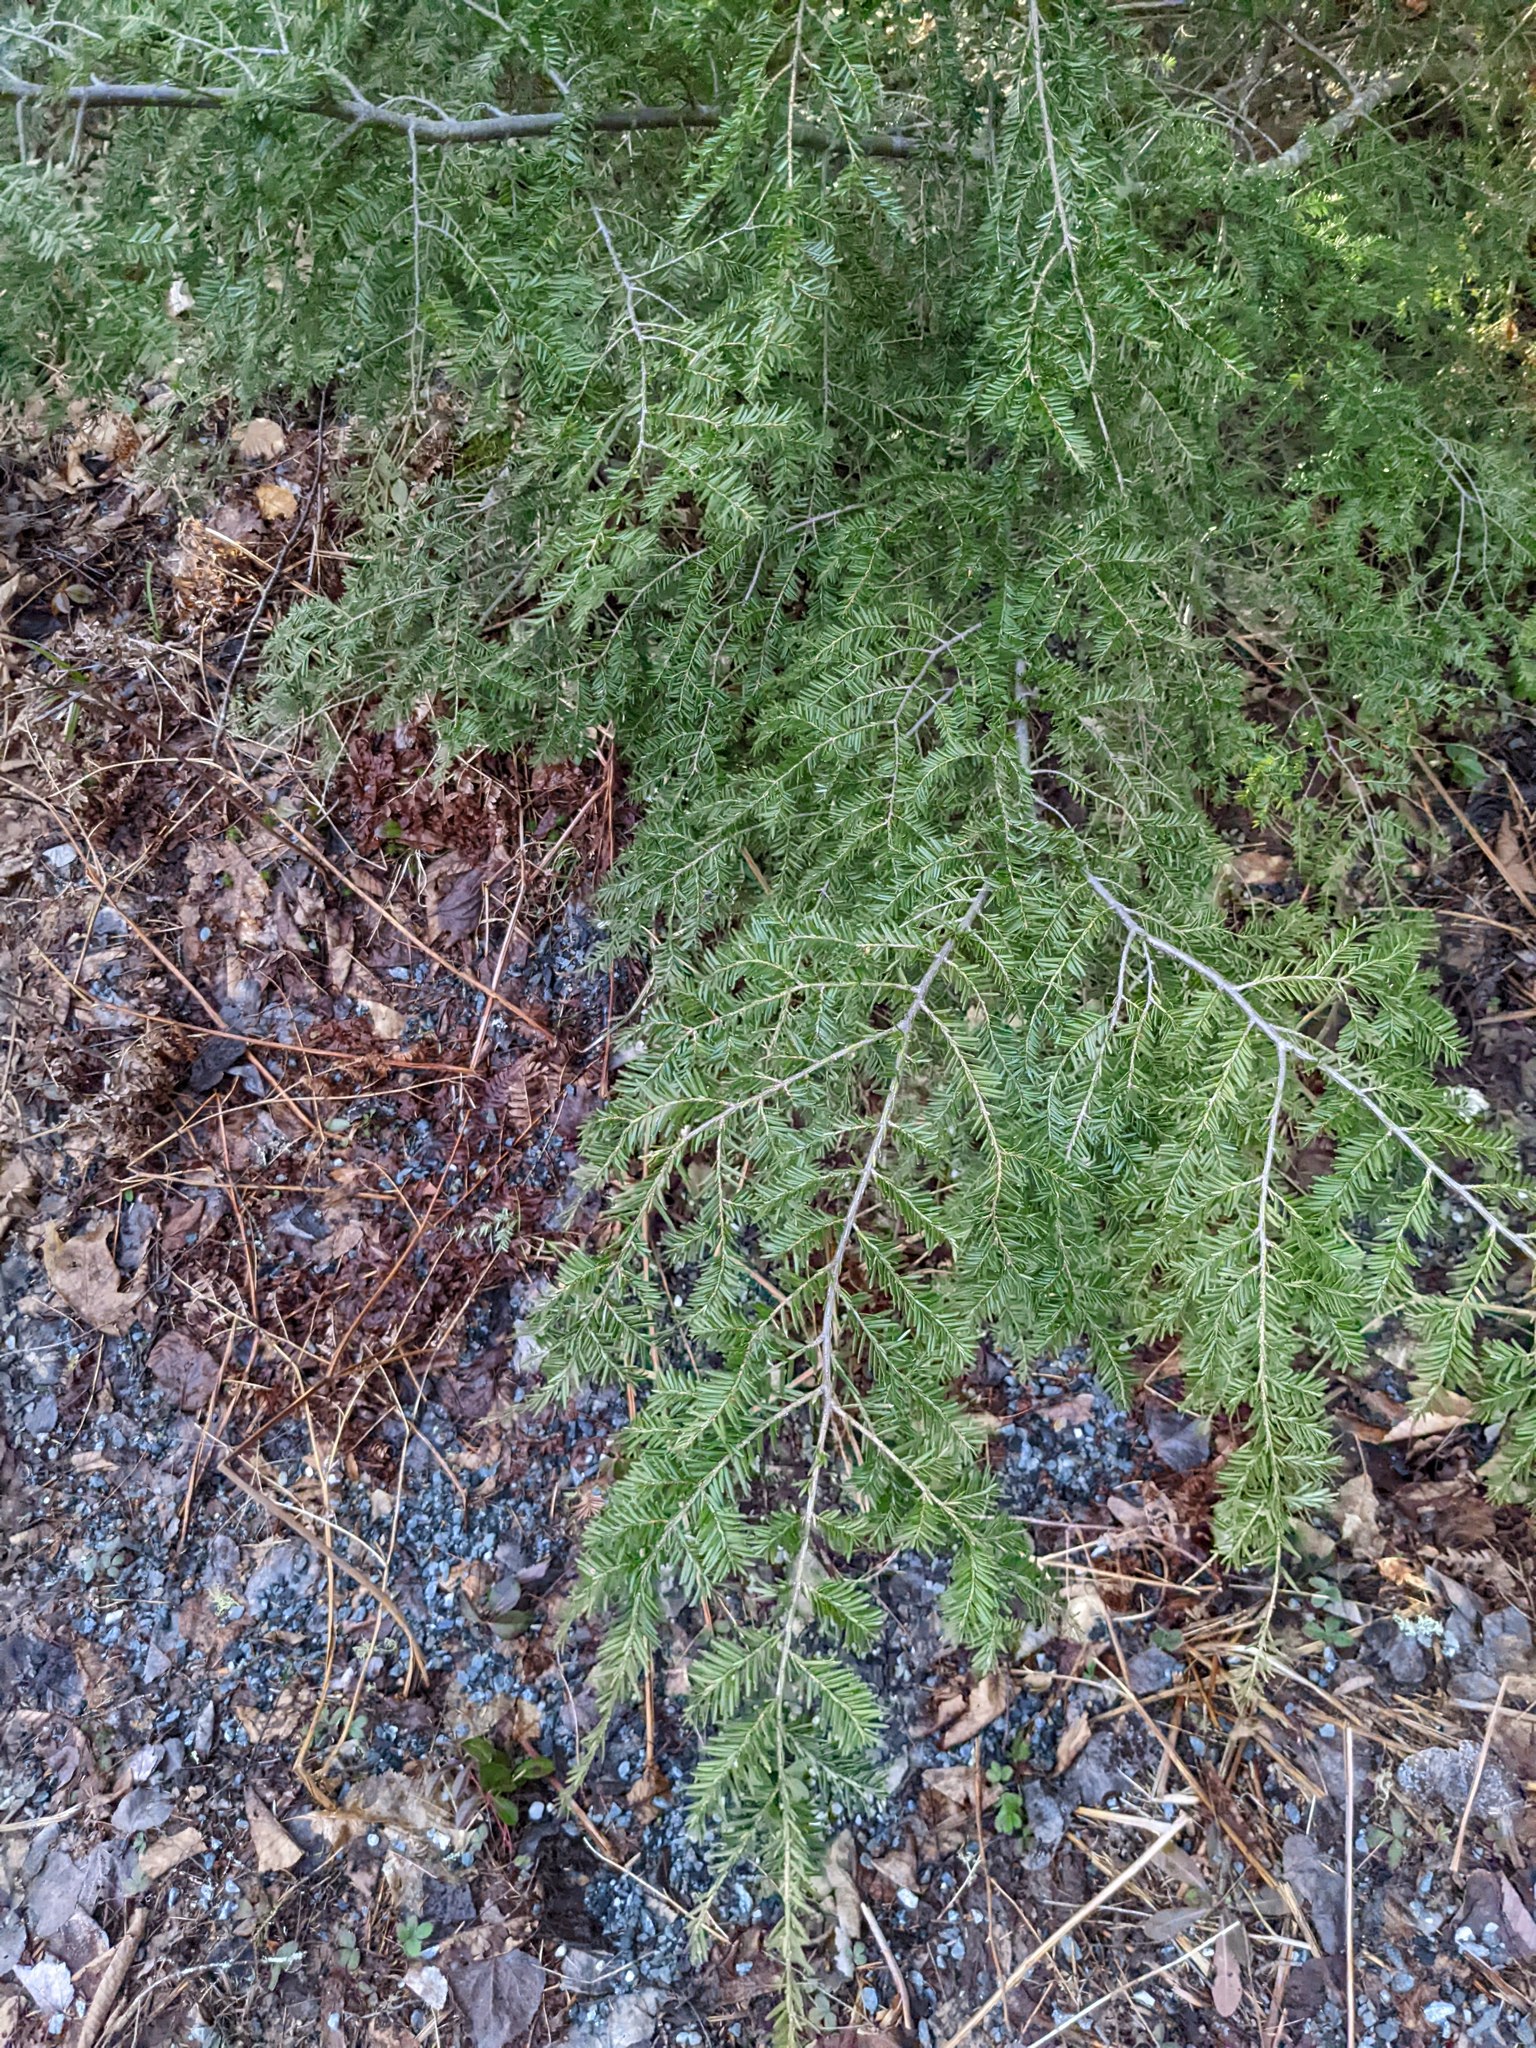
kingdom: Plantae
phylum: Tracheophyta
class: Pinopsida
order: Pinales
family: Pinaceae
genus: Tsuga
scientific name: Tsuga canadensis
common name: Eastern hemlock
